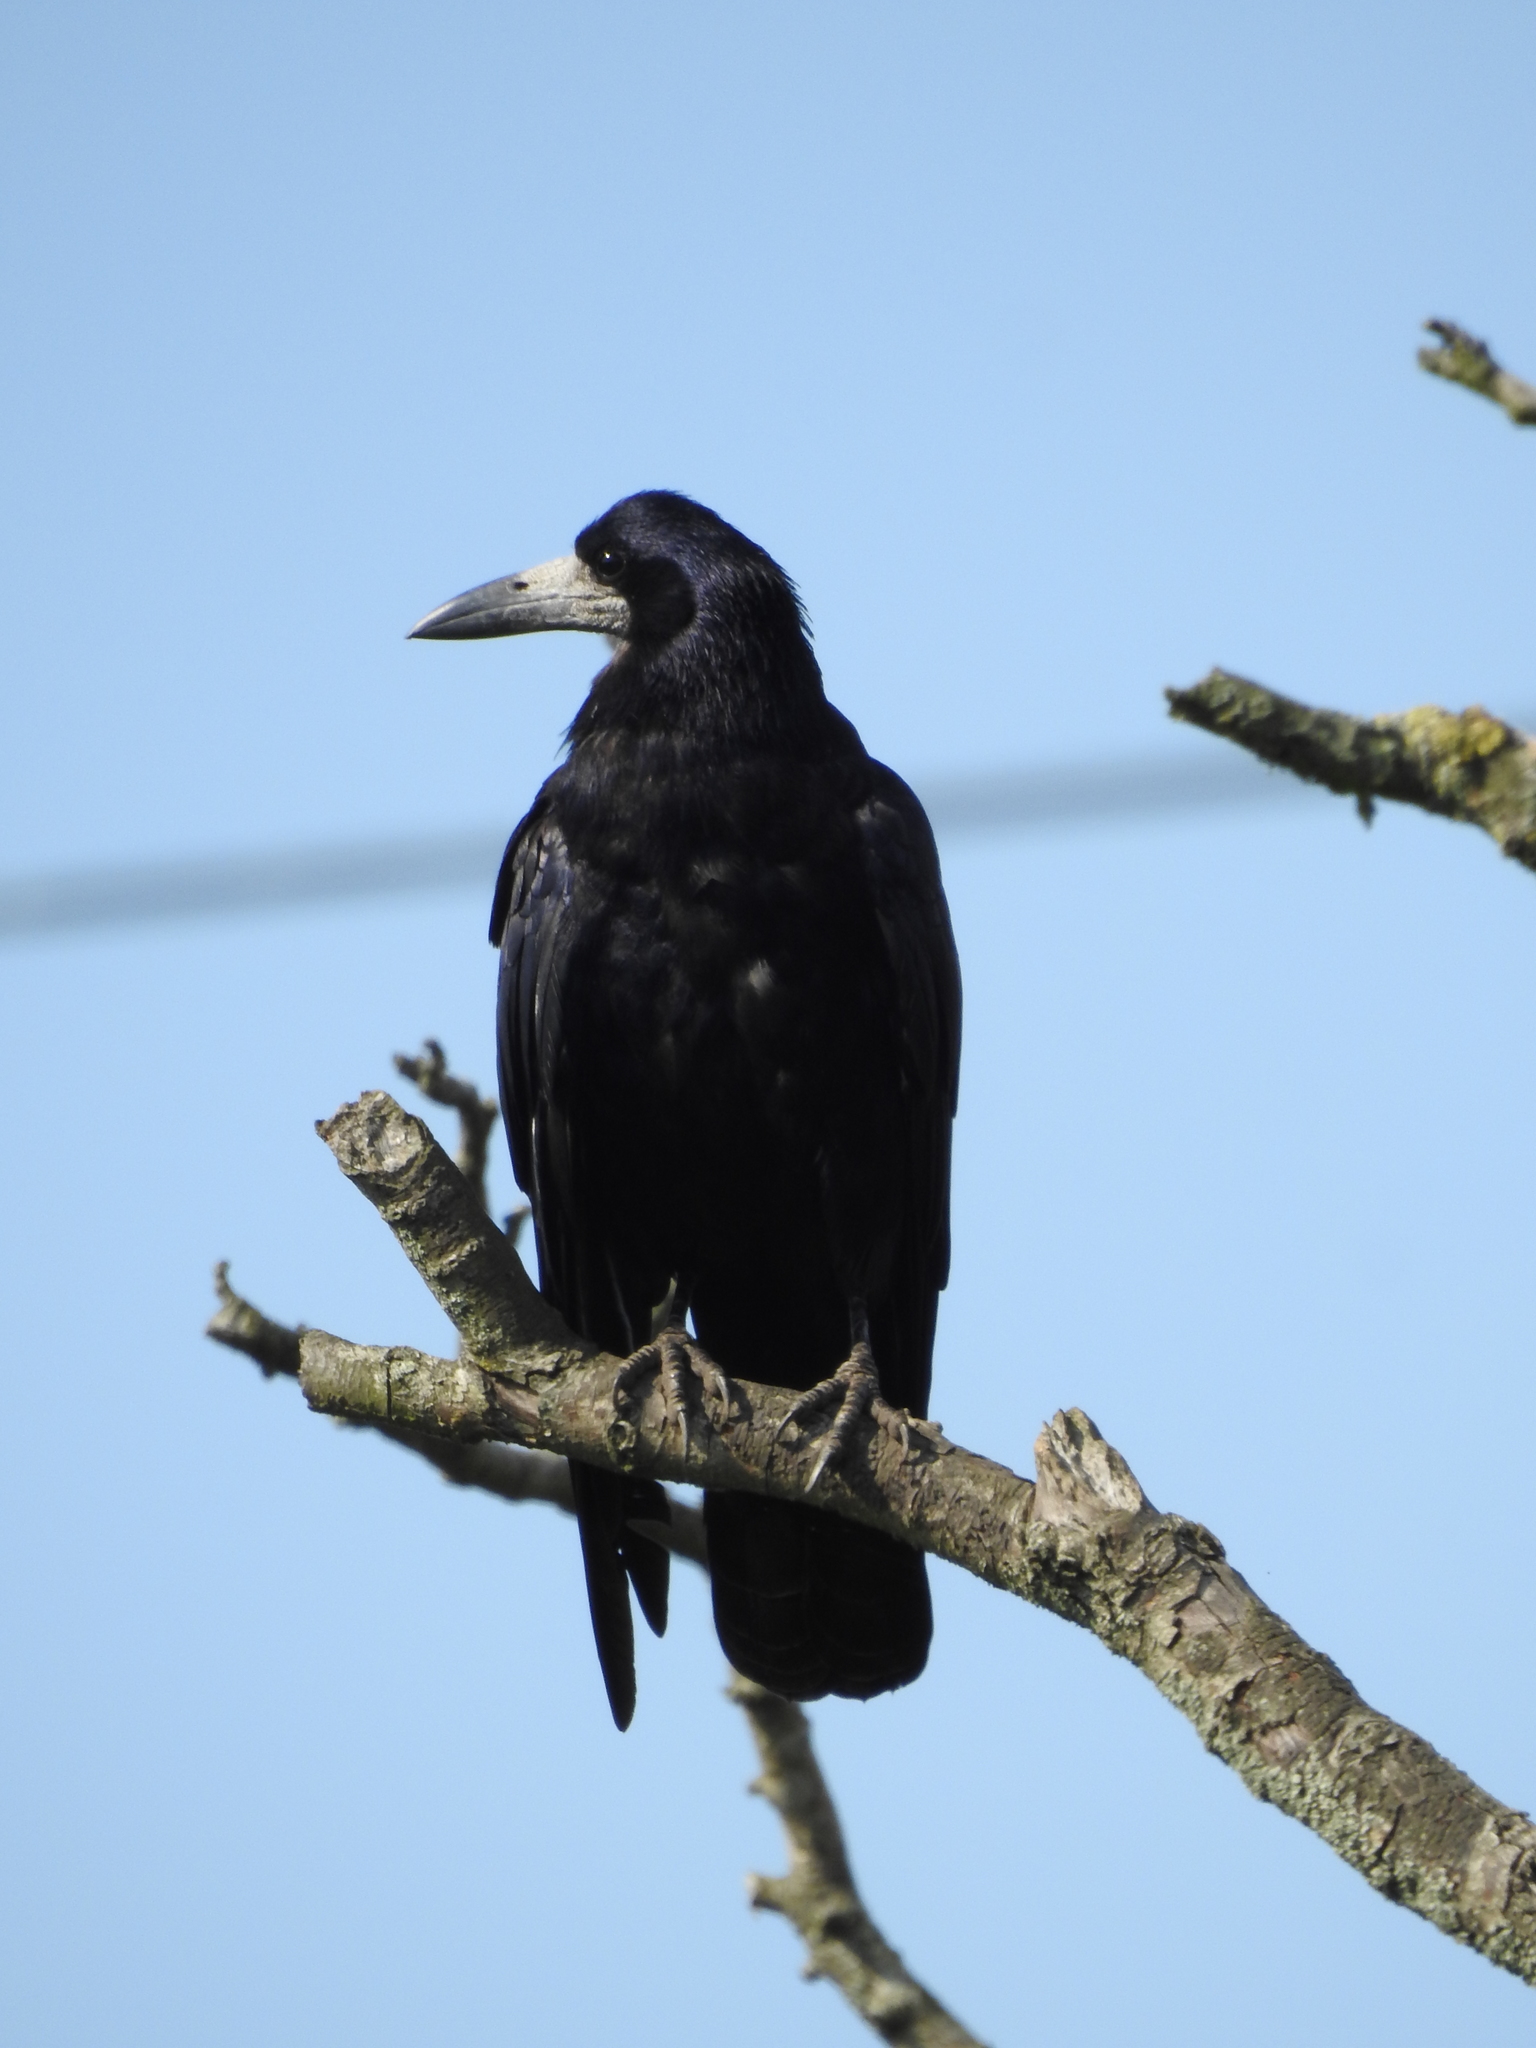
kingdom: Animalia
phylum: Chordata
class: Aves
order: Passeriformes
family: Corvidae
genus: Corvus
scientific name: Corvus frugilegus
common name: Rook
